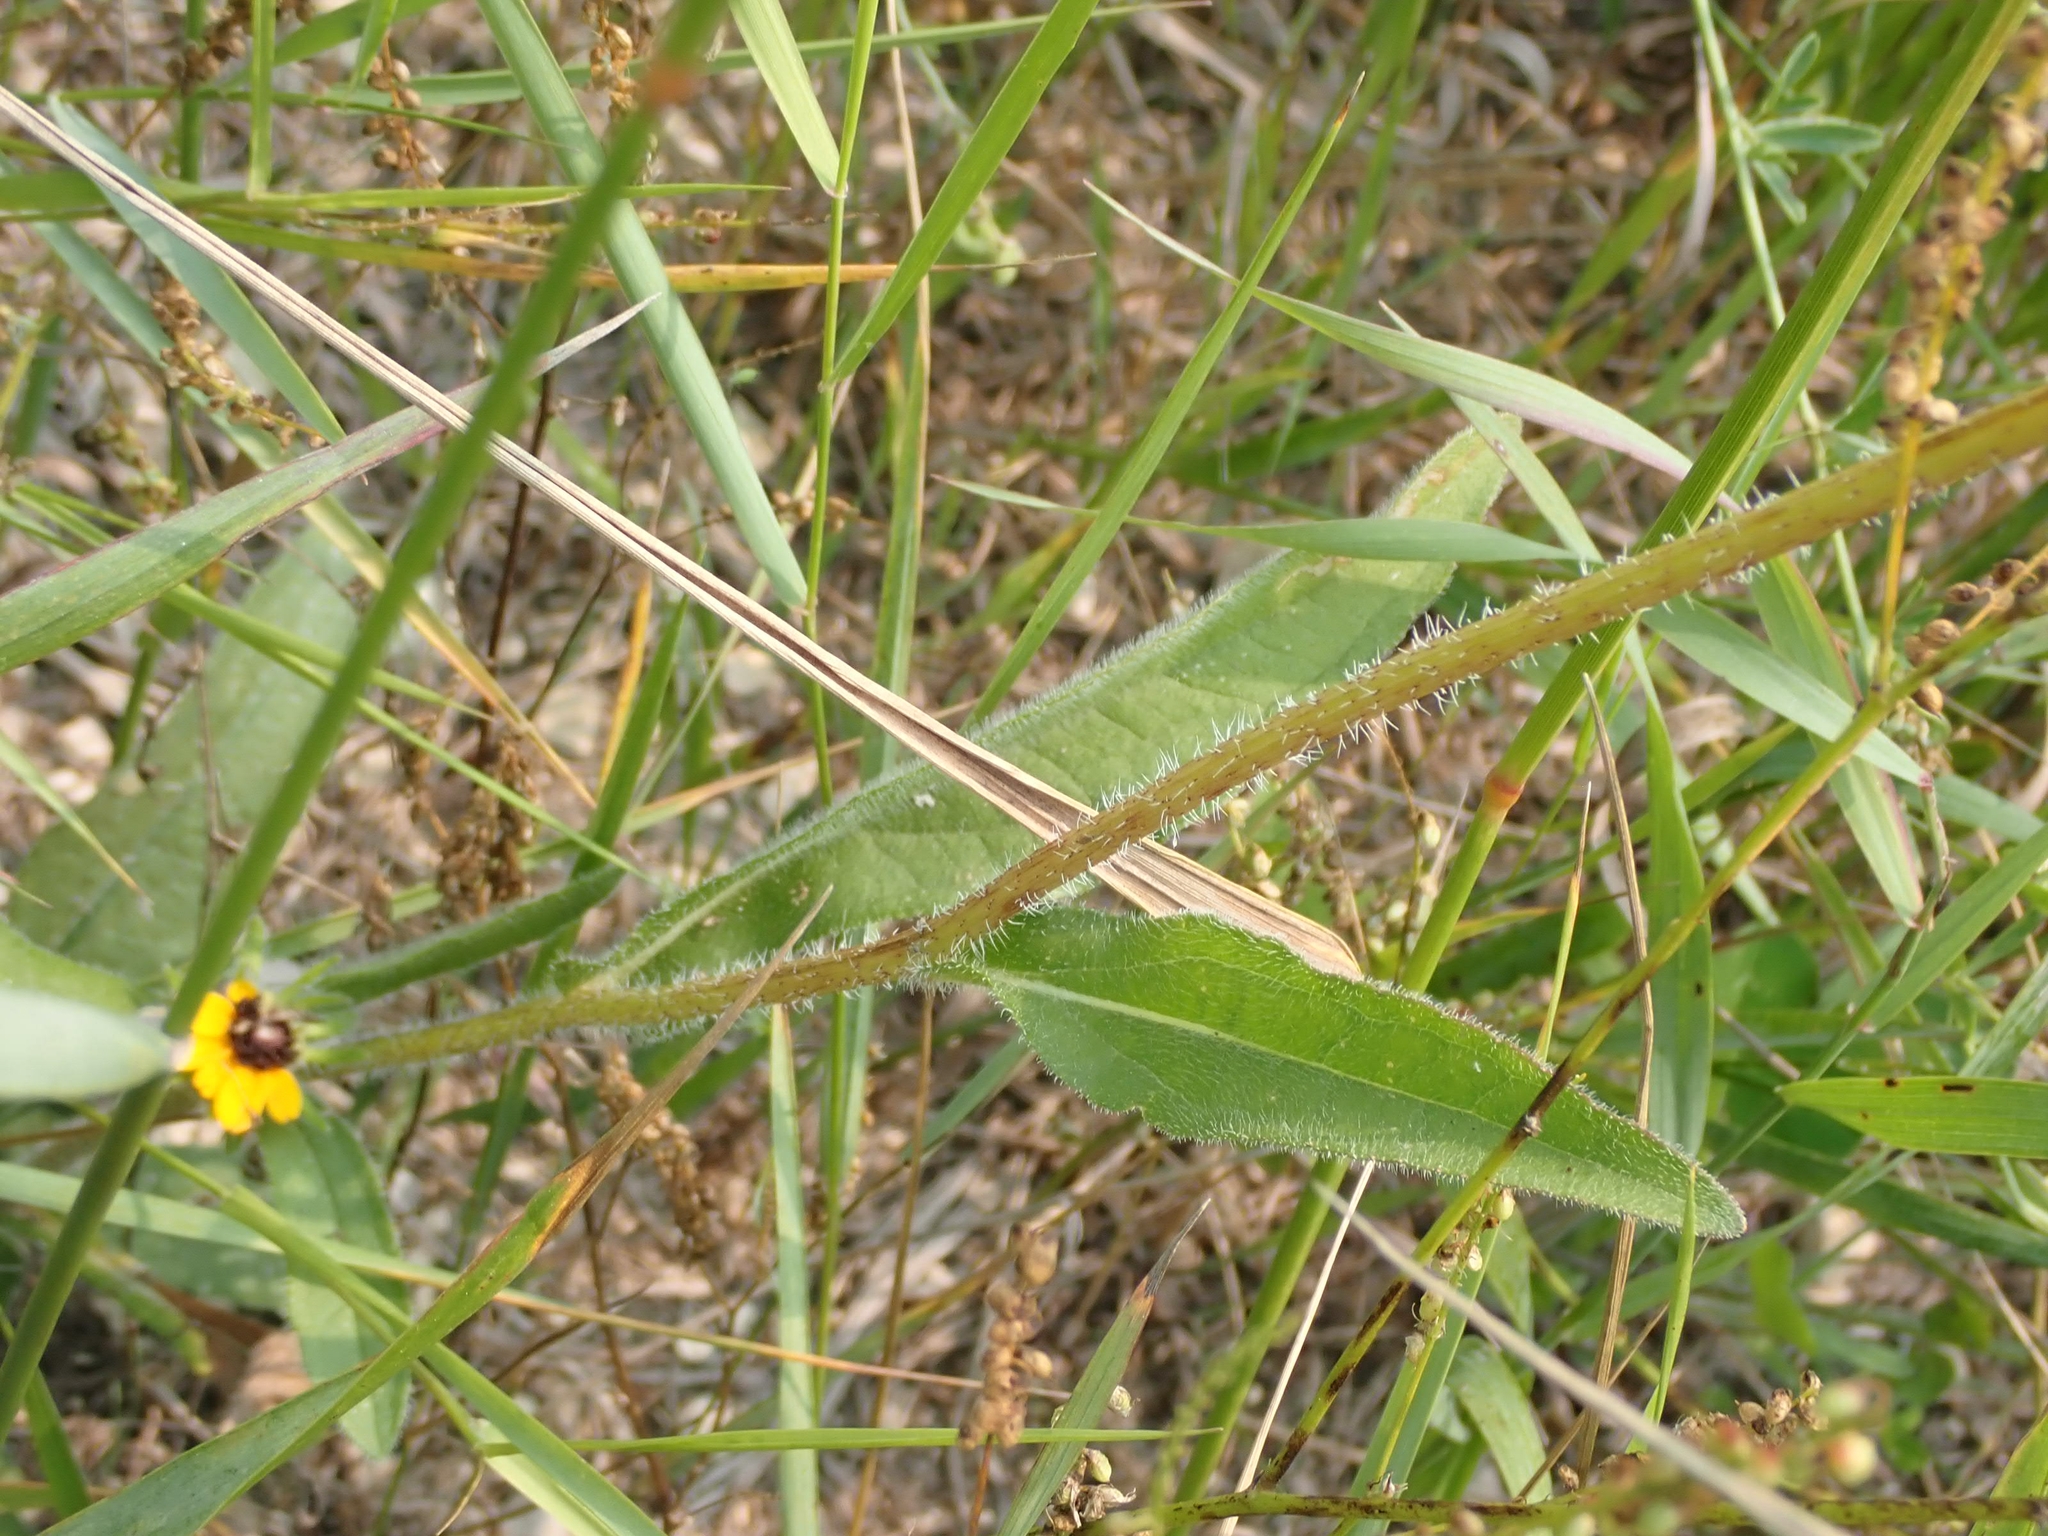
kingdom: Plantae
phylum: Tracheophyta
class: Magnoliopsida
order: Asterales
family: Asteraceae
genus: Rudbeckia
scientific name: Rudbeckia hirta
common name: Black-eyed-susan
